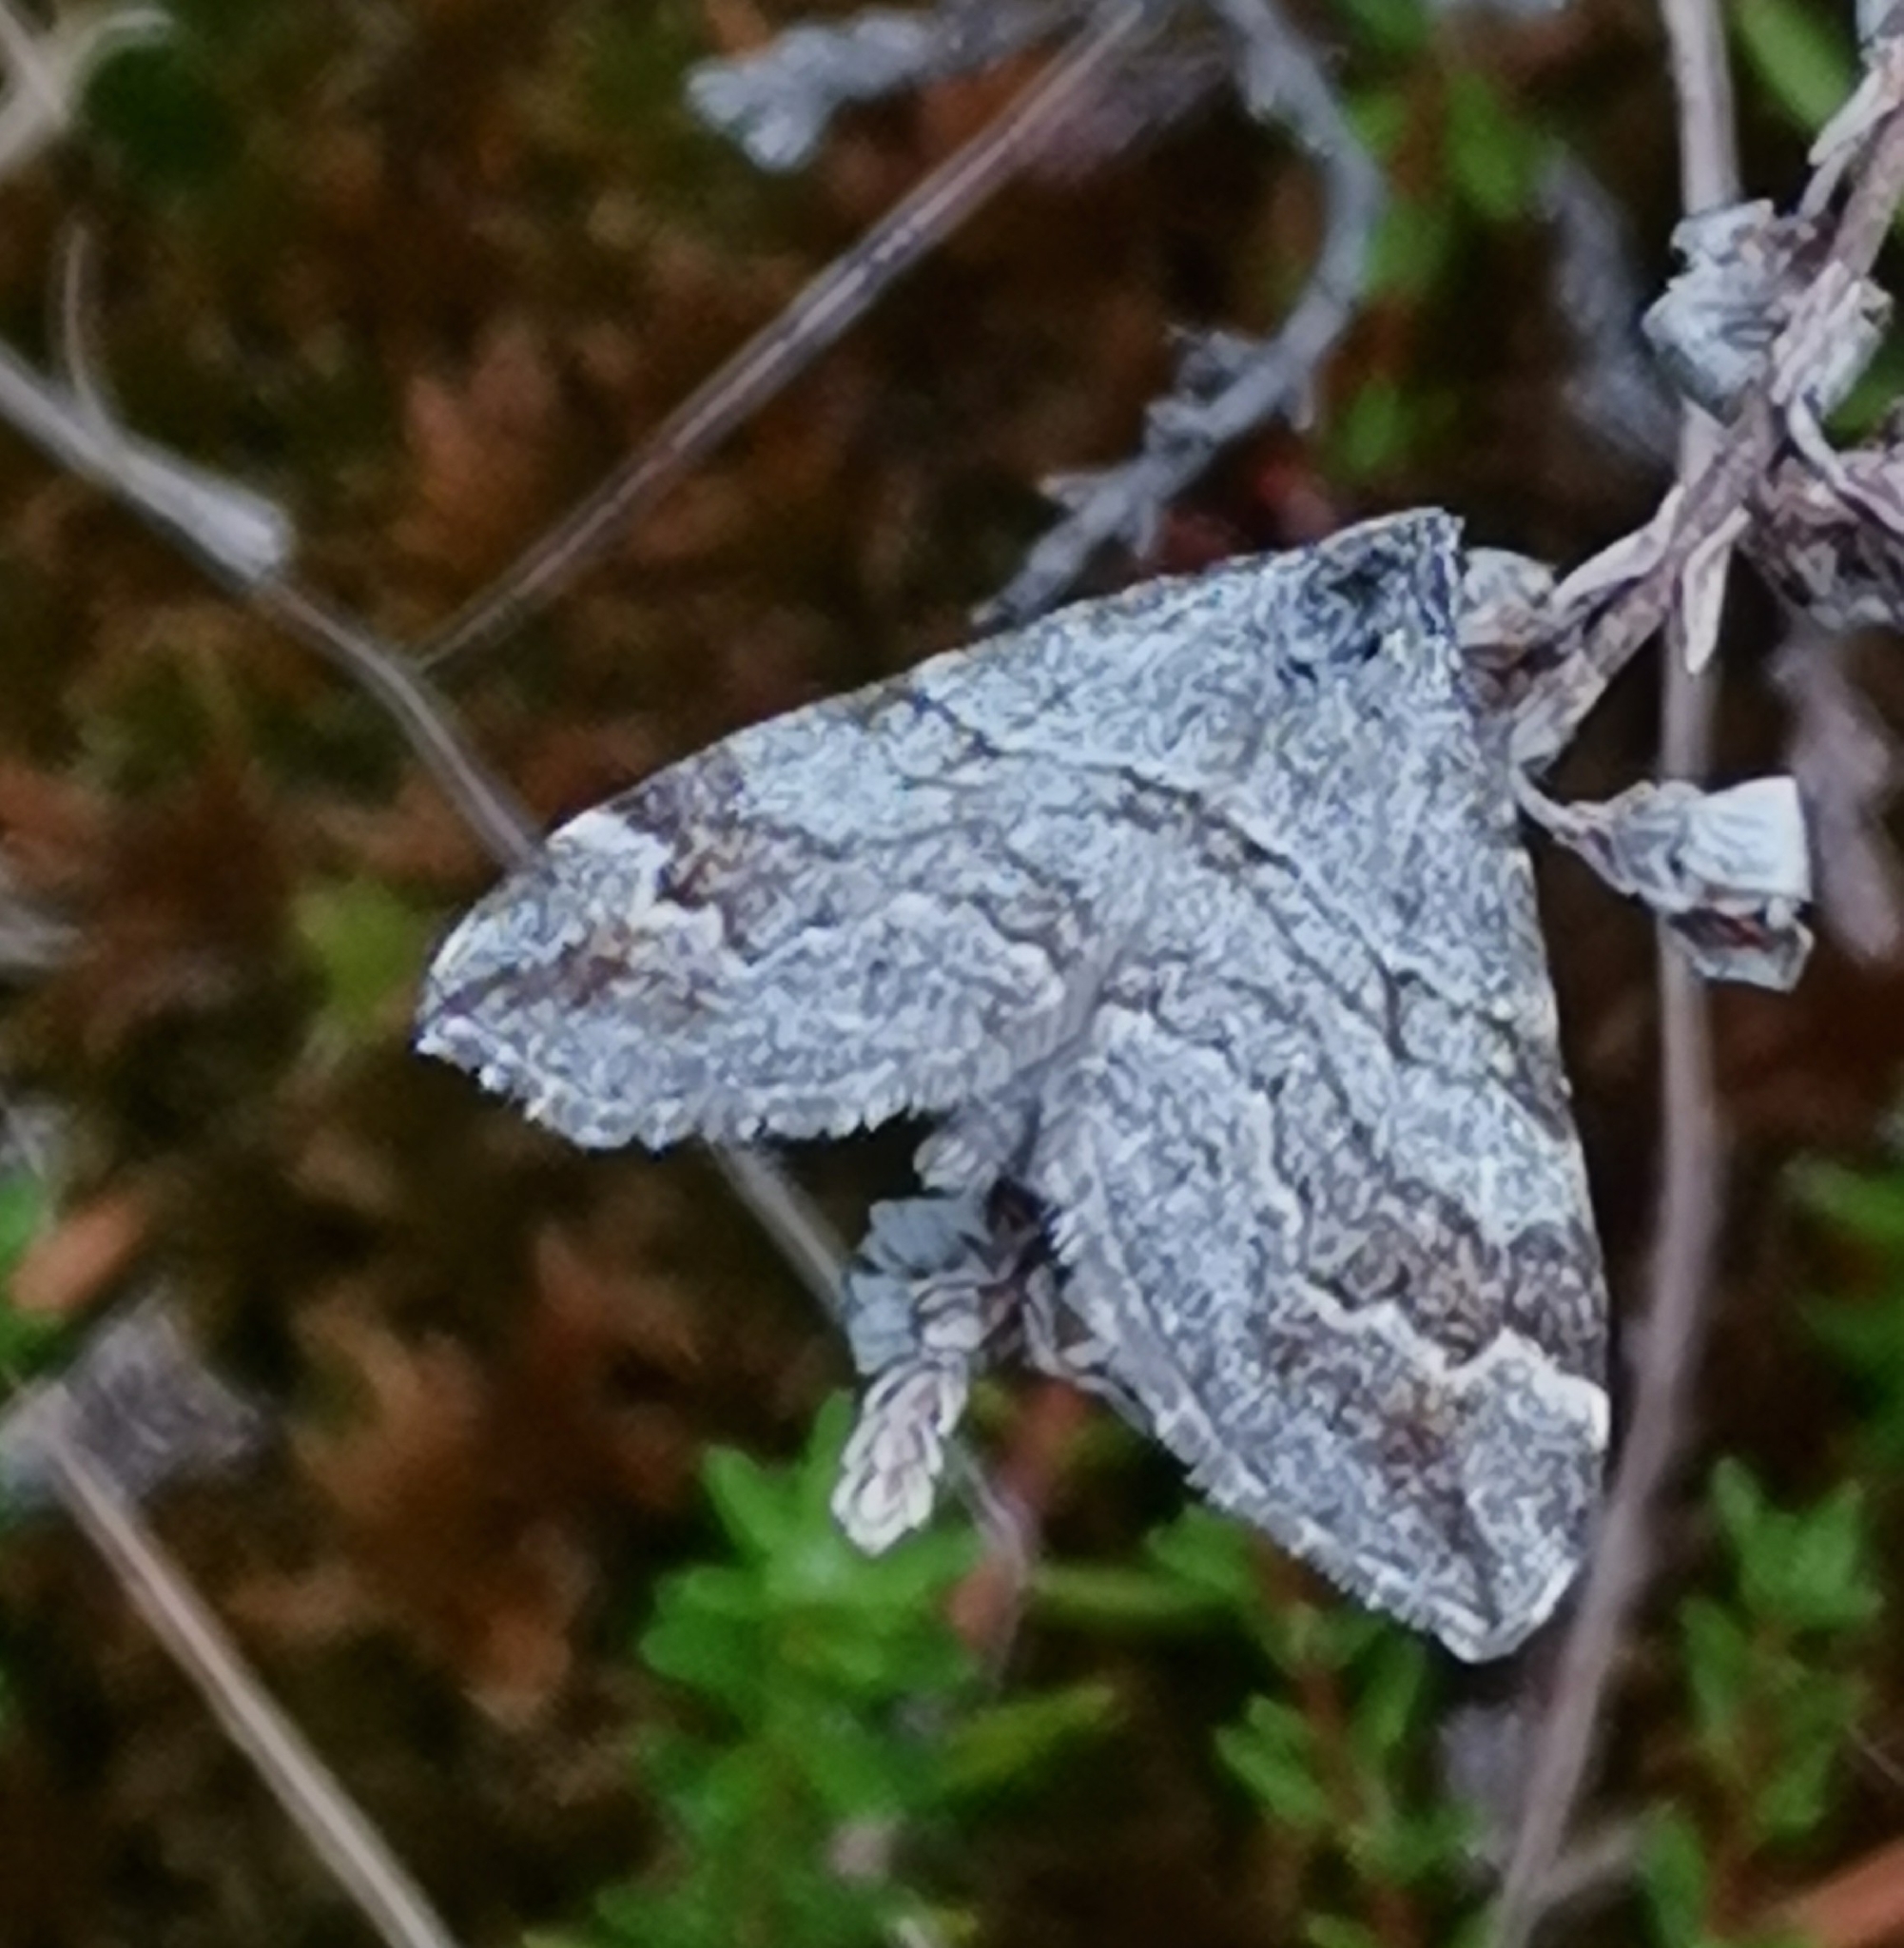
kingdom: Animalia
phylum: Arthropoda
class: Insecta
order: Lepidoptera
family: Geometridae
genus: Carsia
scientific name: Carsia sororiata
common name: Manchester treble-bar
